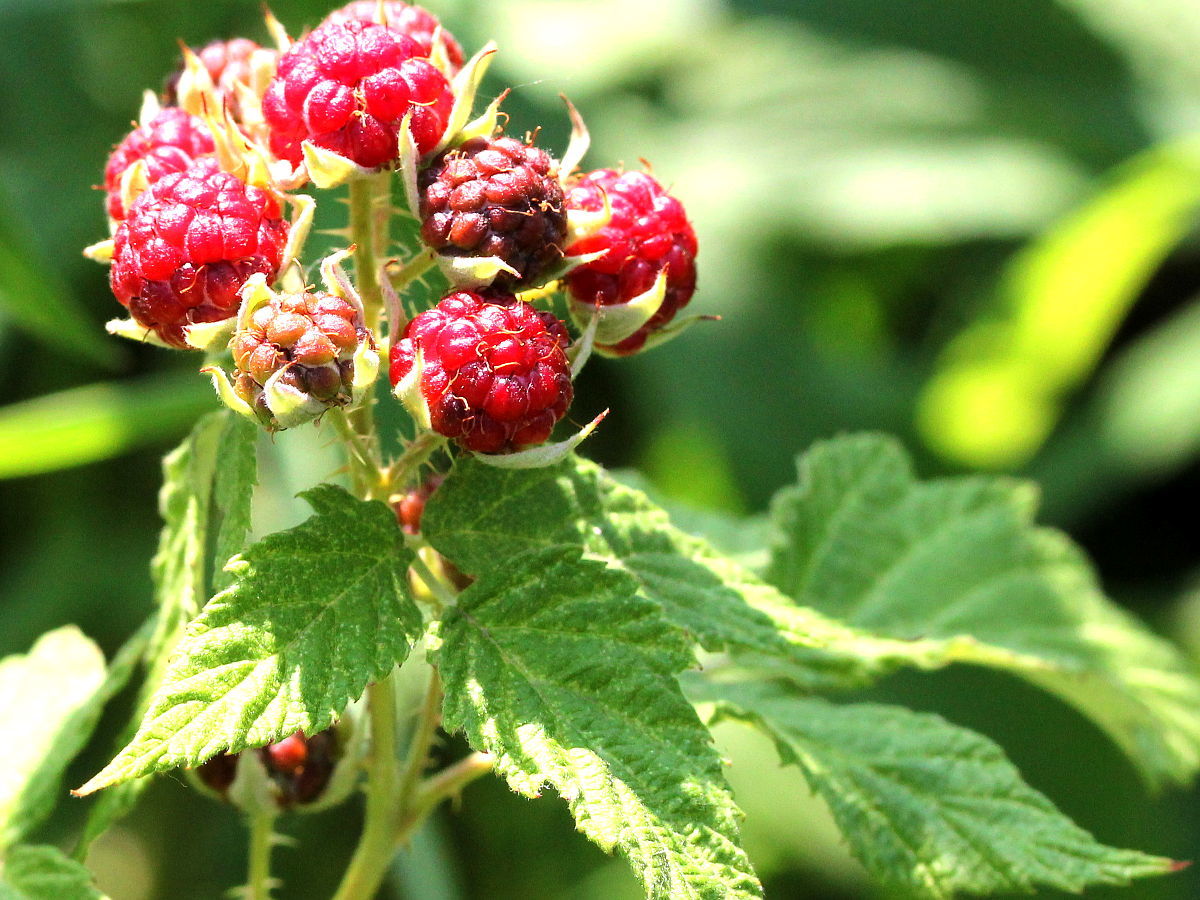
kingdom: Plantae
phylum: Tracheophyta
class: Magnoliopsida
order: Rosales
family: Rosaceae
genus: Rubus
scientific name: Rubus occidentalis
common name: Black raspberry
